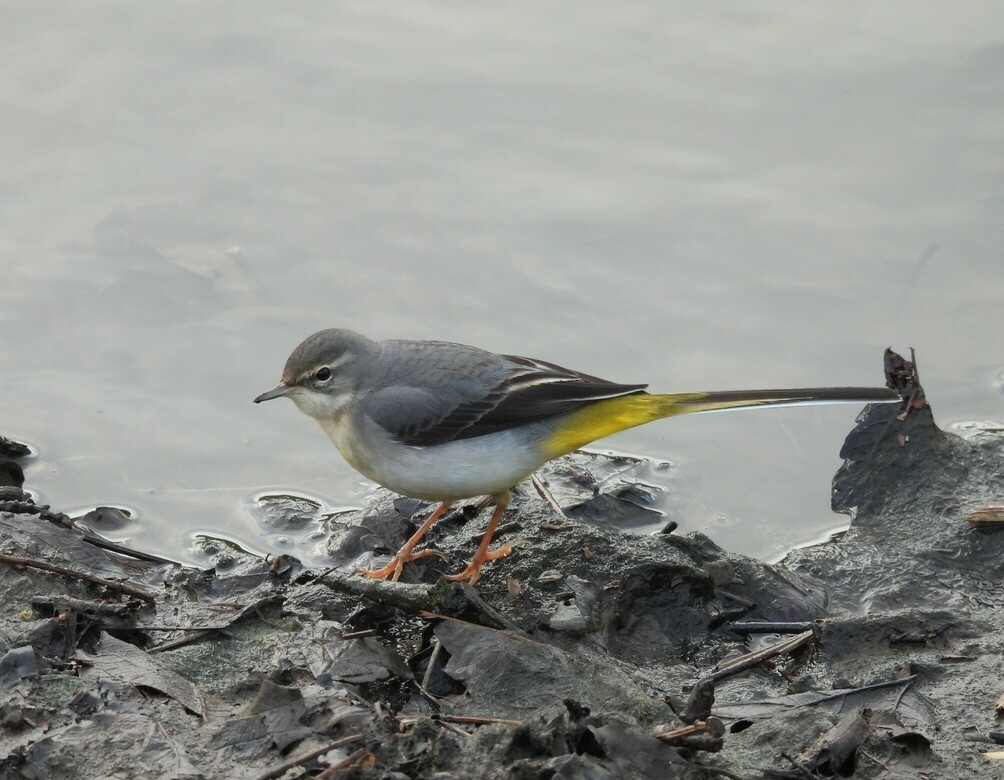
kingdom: Animalia
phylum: Chordata
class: Aves
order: Passeriformes
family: Motacillidae
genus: Motacilla
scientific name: Motacilla cinerea
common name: Grey wagtail
